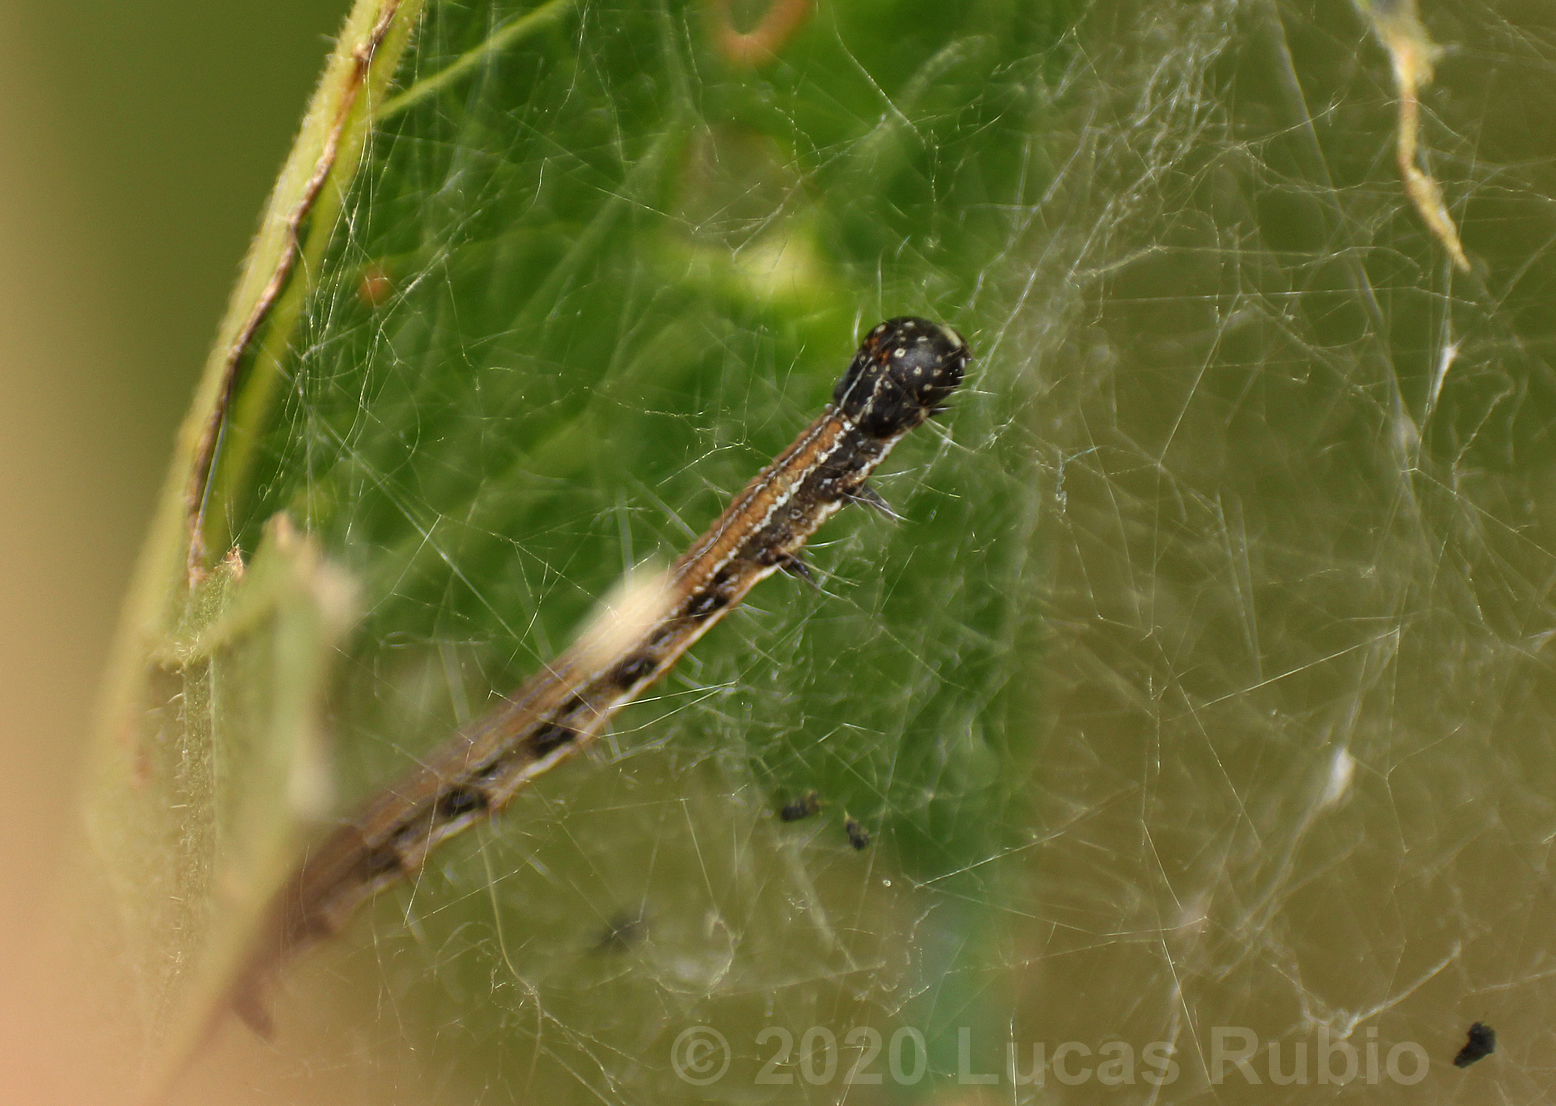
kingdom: Animalia
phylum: Arthropoda
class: Insecta
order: Lepidoptera
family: Attevidae
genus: Atteva
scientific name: Atteva punctella
